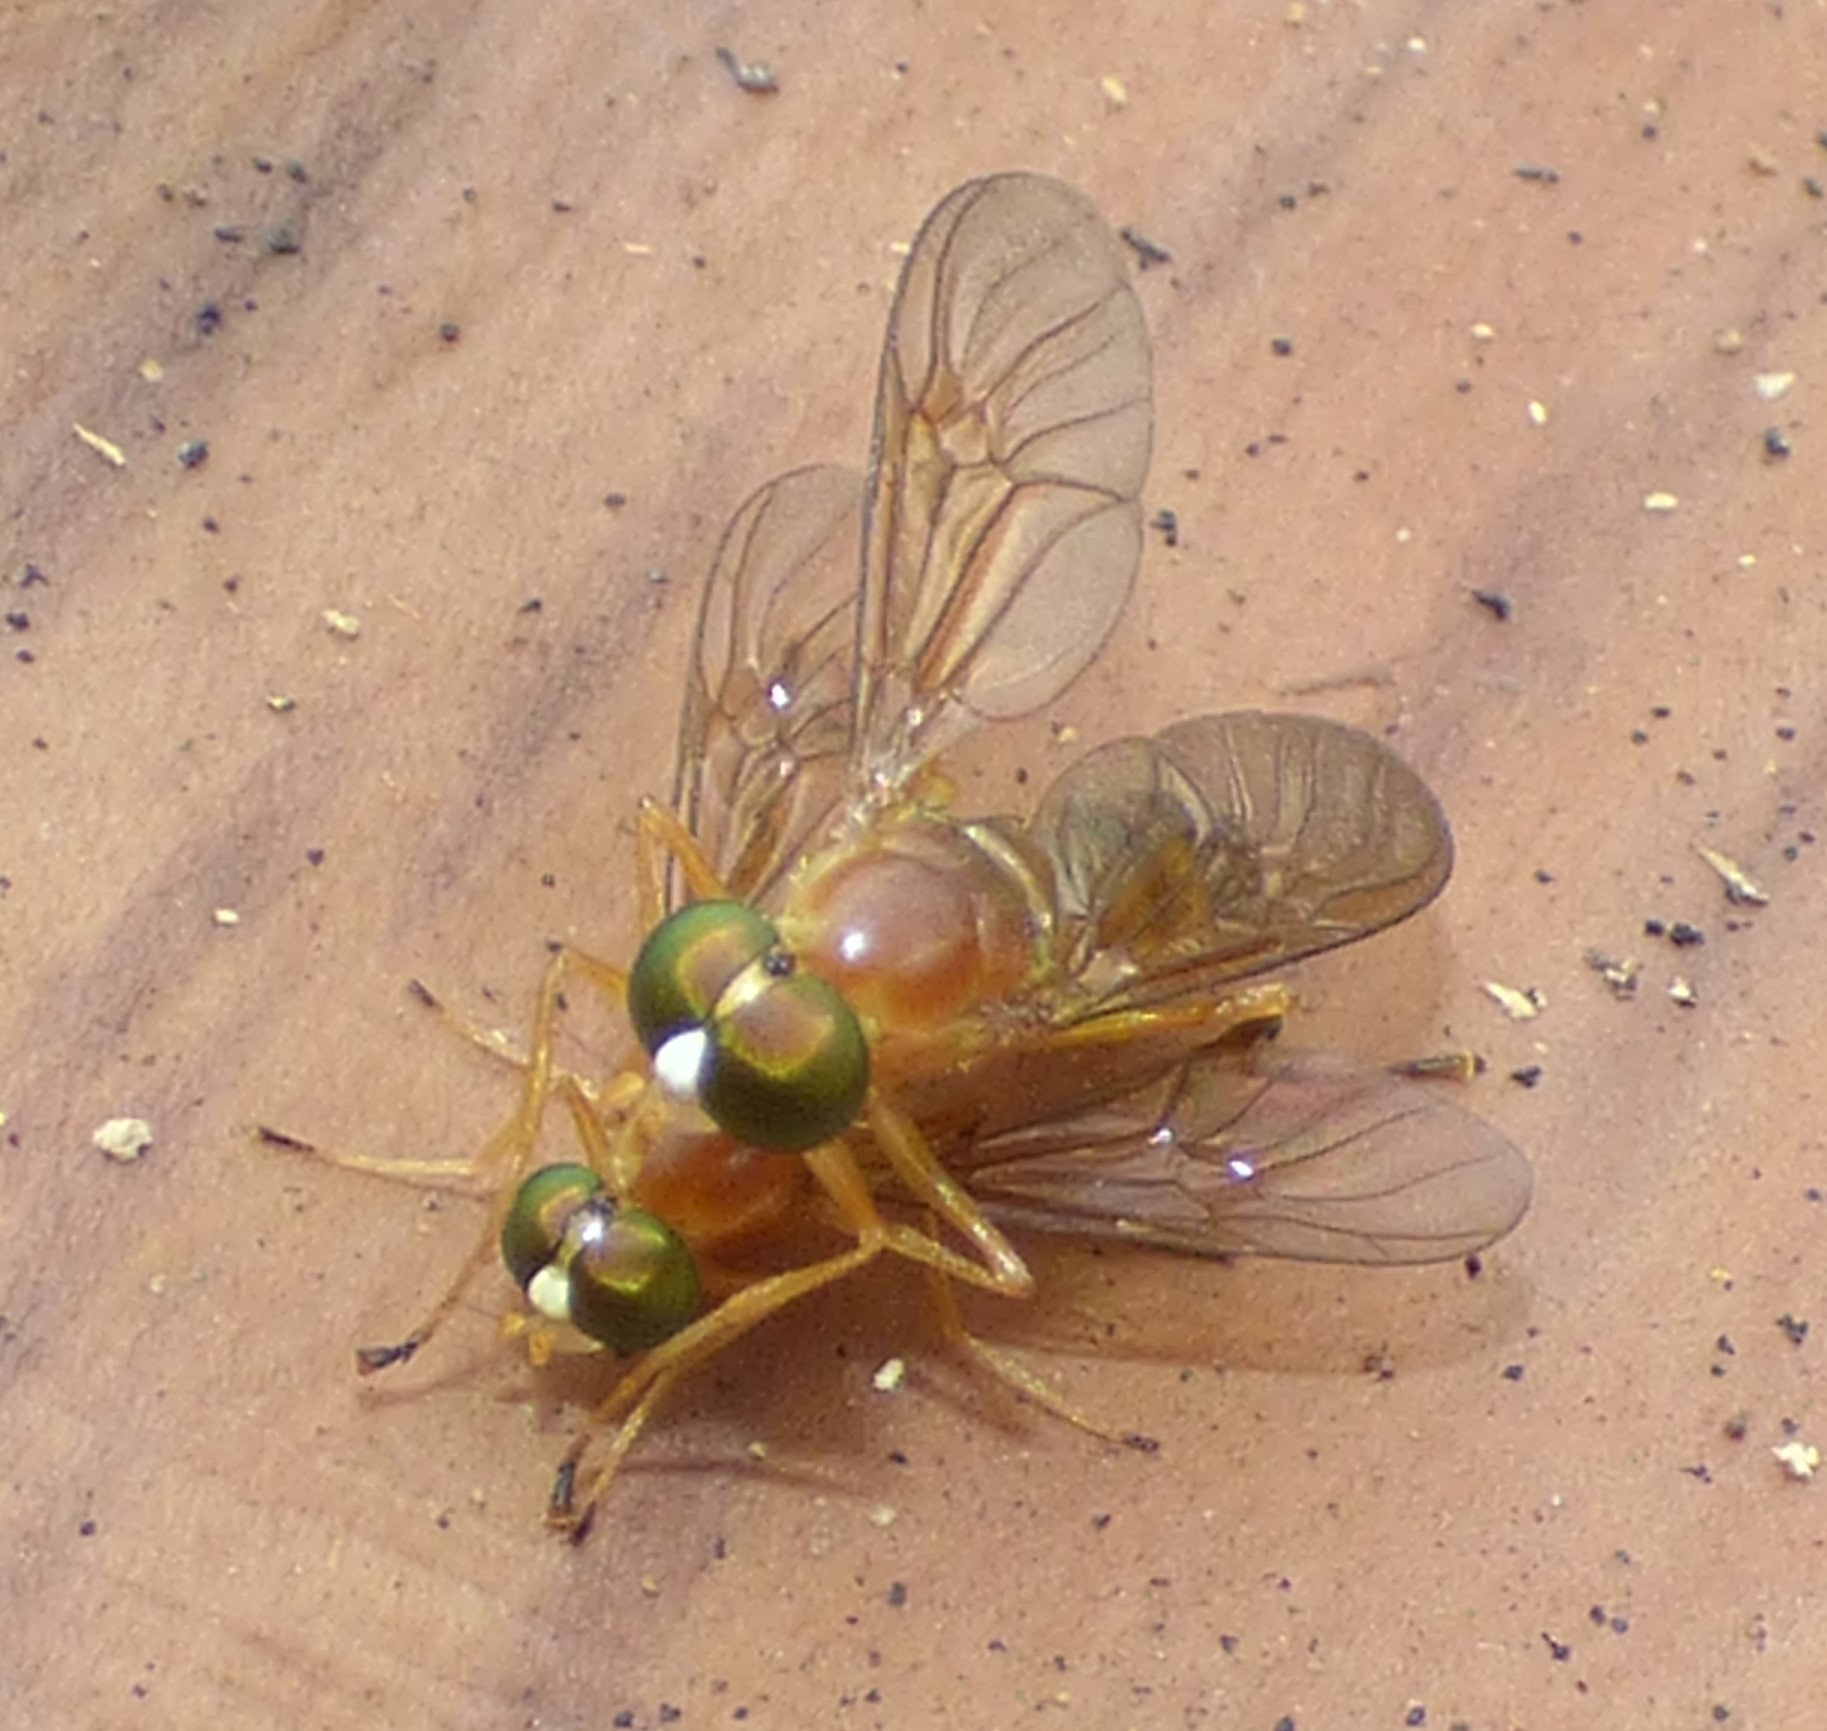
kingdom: Animalia
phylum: Arthropoda
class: Insecta
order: Diptera
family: Stratiomyidae
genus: Ptecticus
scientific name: Ptecticus trivittatus
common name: Compost fly
